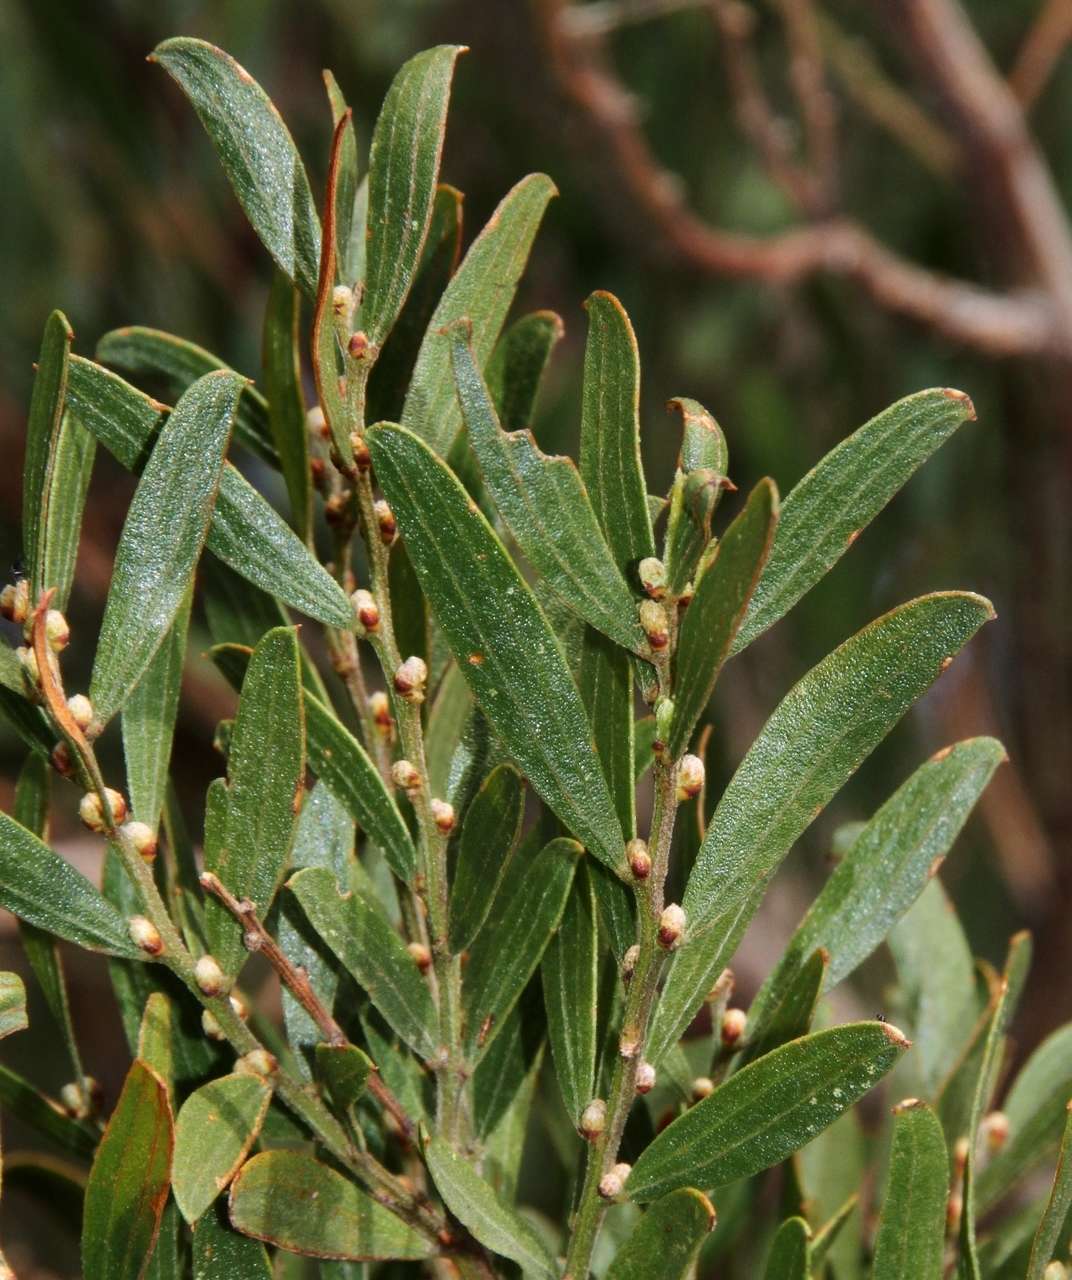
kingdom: Plantae
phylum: Tracheophyta
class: Magnoliopsida
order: Fabales
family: Fabaceae
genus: Acacia
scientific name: Acacia rostriformis
